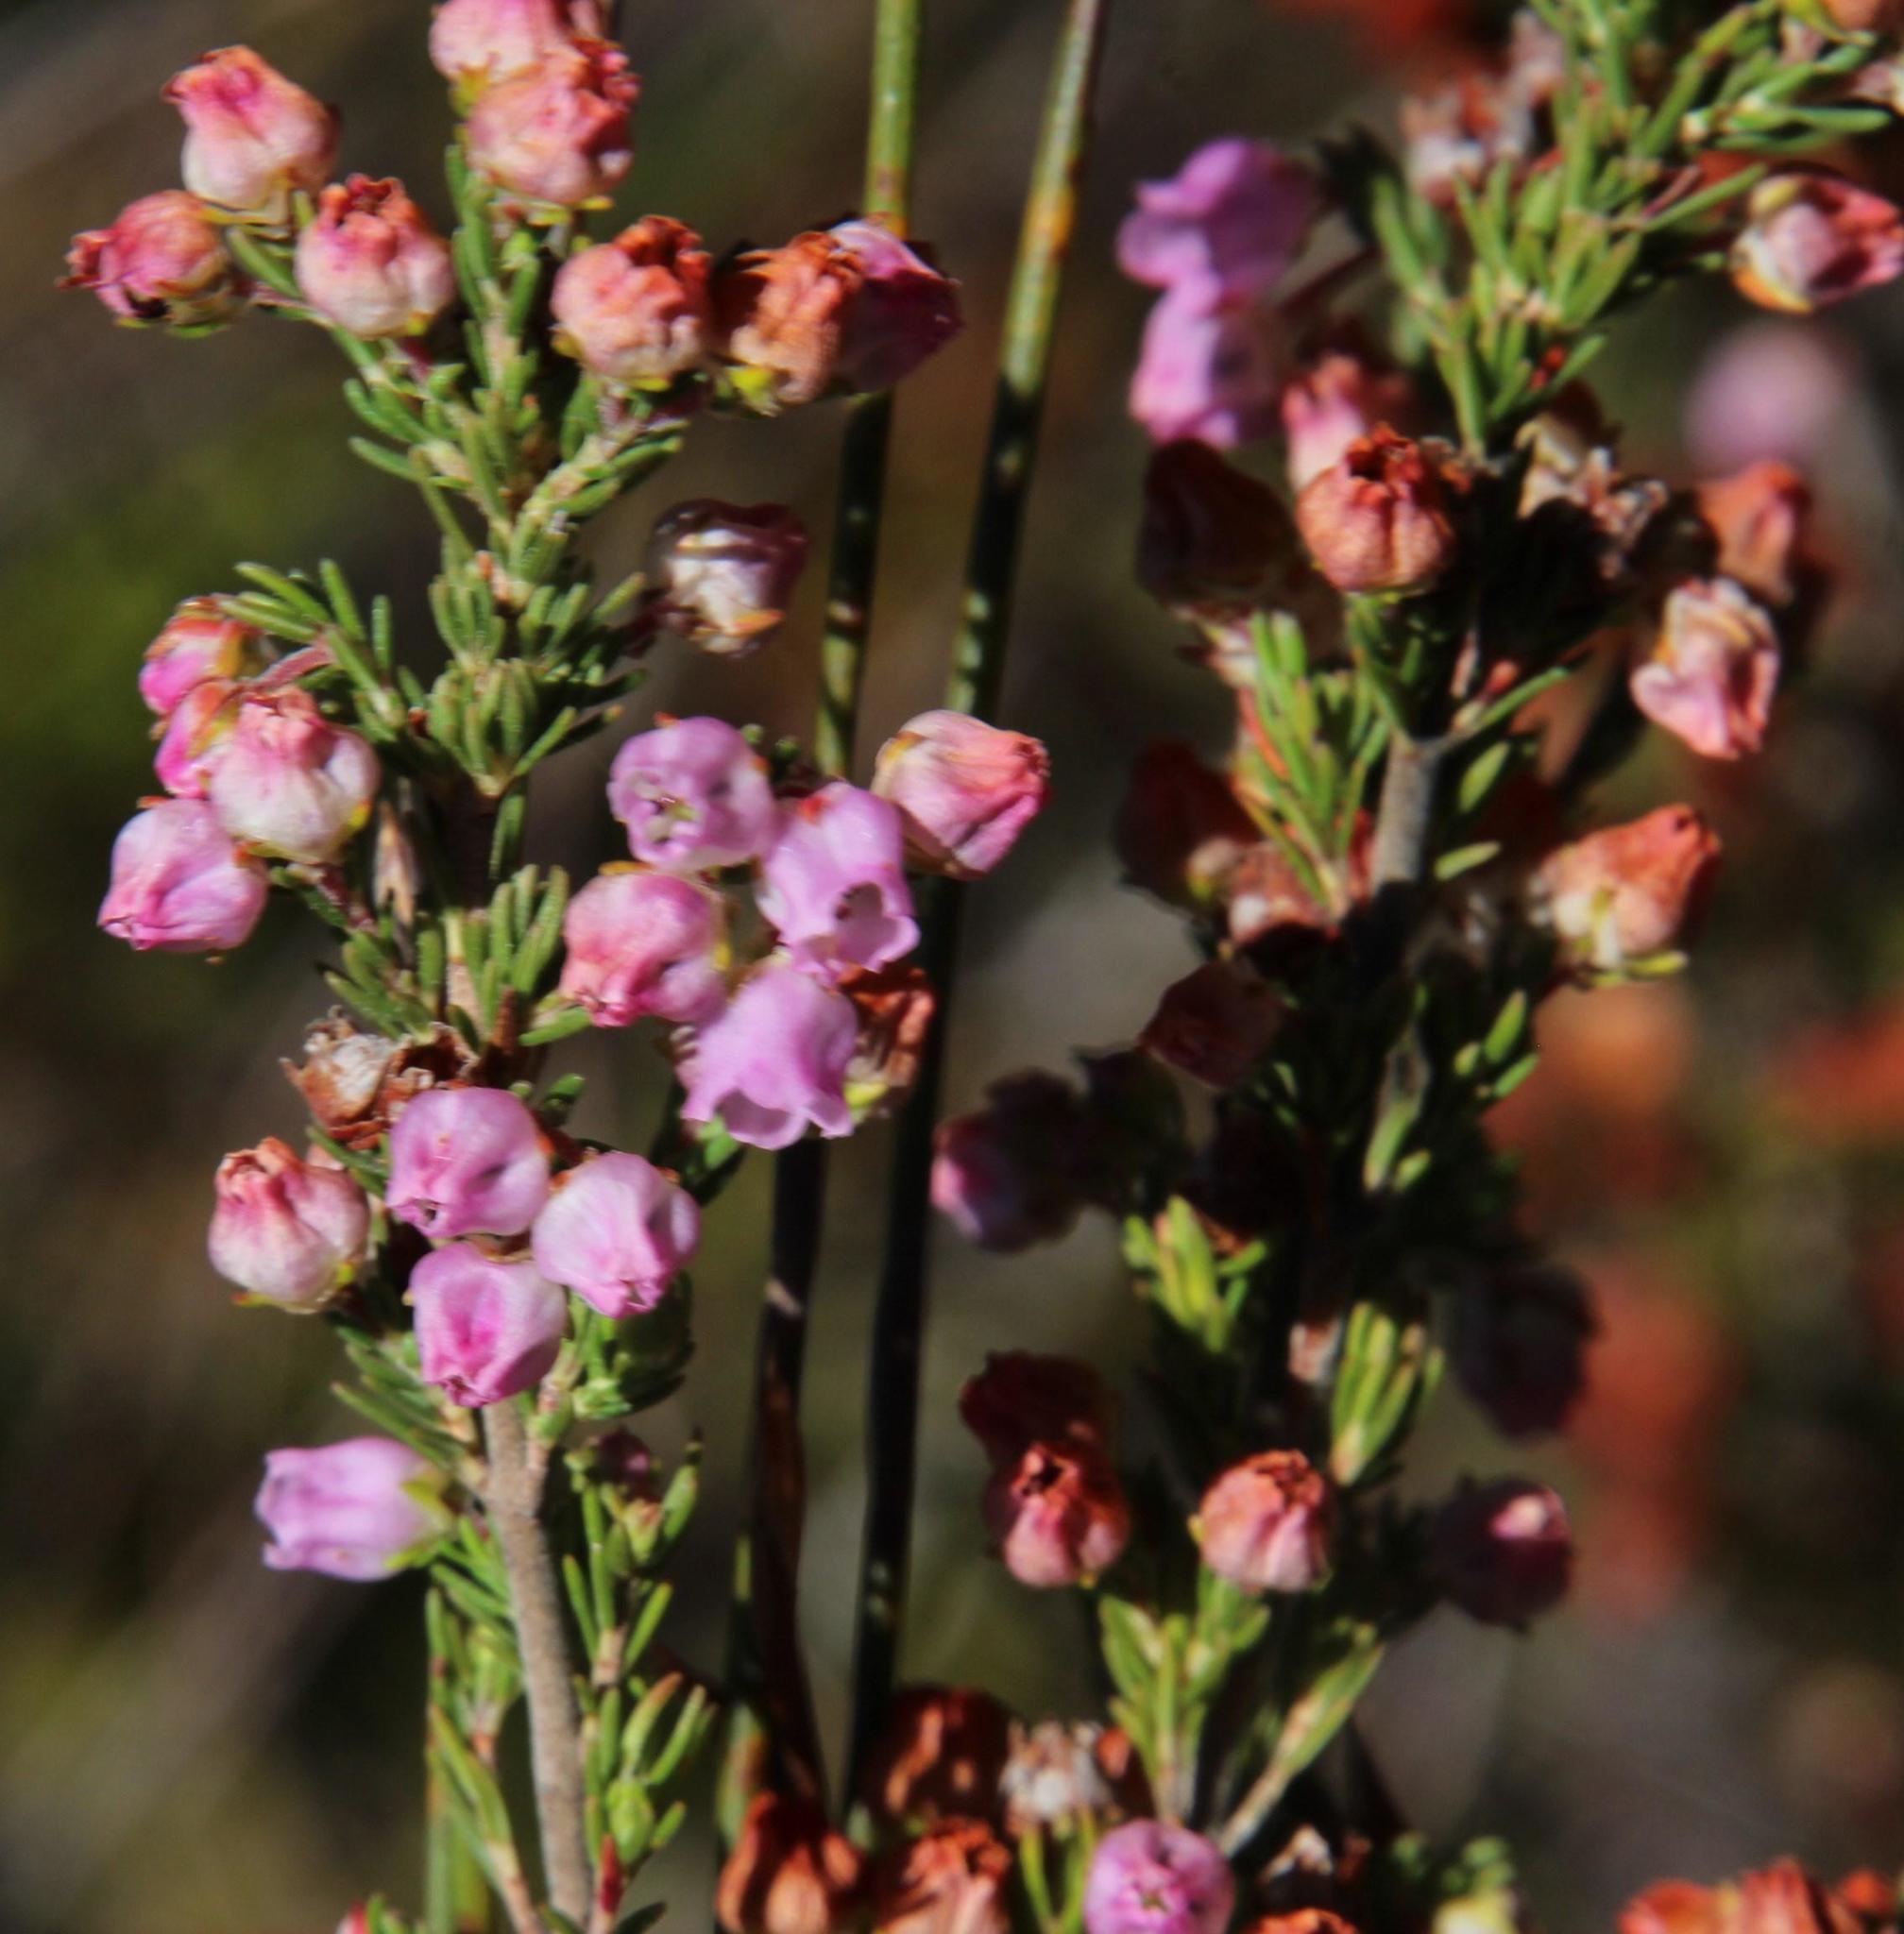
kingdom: Plantae
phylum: Tracheophyta
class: Magnoliopsida
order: Ericales
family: Ericaceae
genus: Erica
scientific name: Erica condensata
